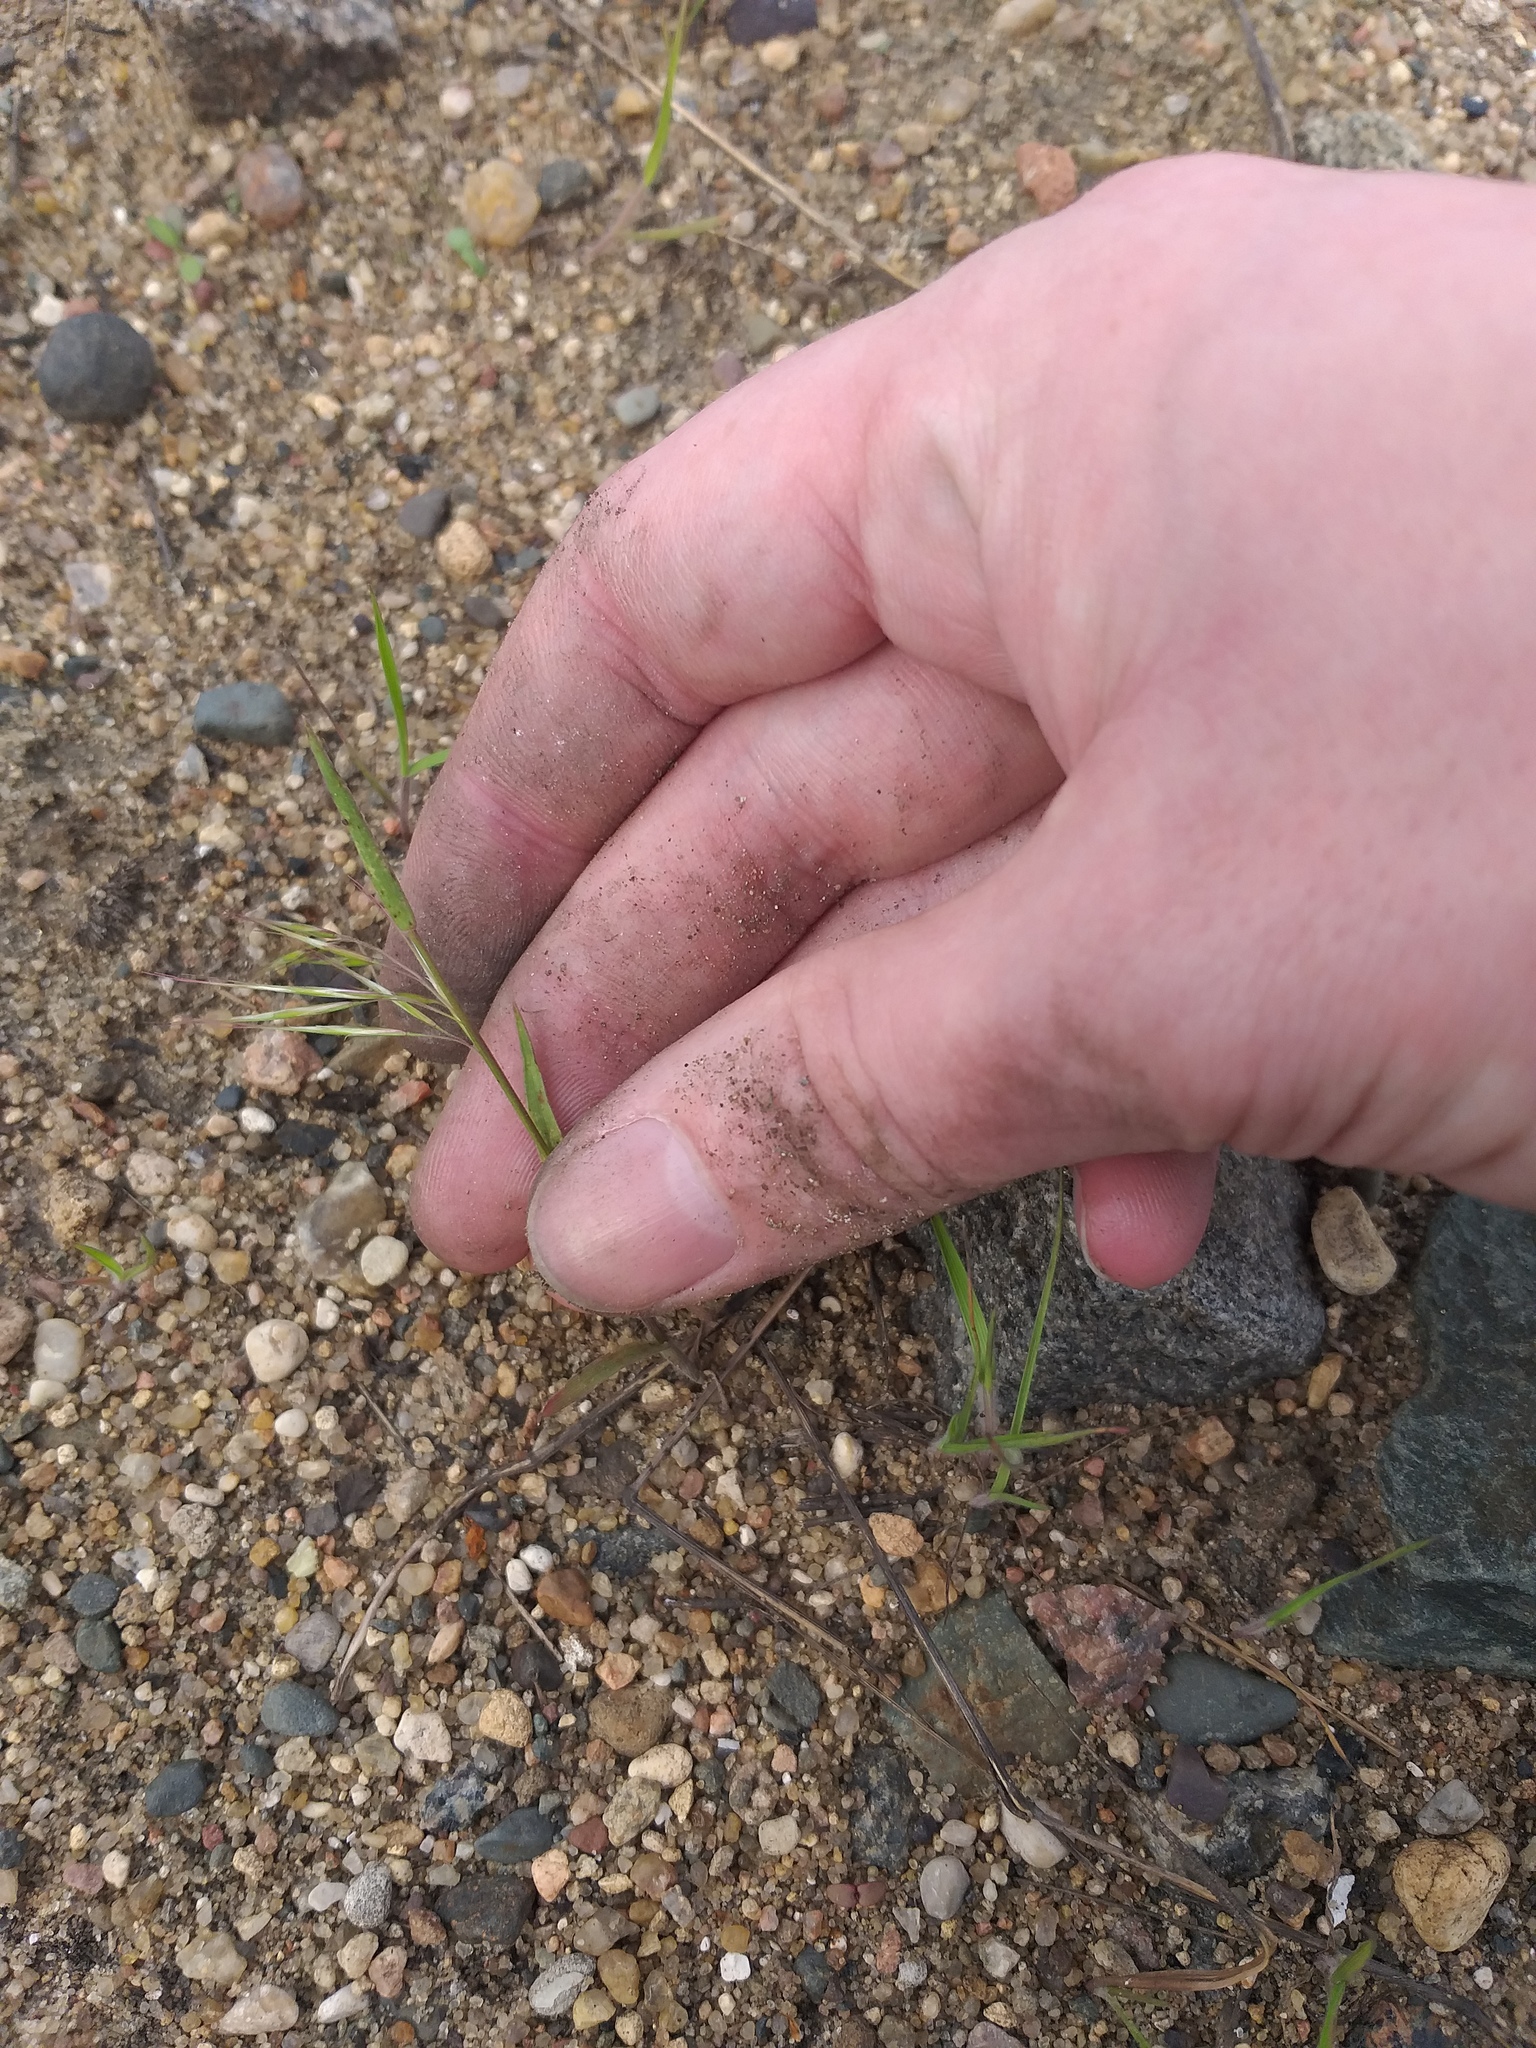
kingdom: Plantae
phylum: Tracheophyta
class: Liliopsida
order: Poales
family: Poaceae
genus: Bromus
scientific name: Bromus tectorum
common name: Cheatgrass
